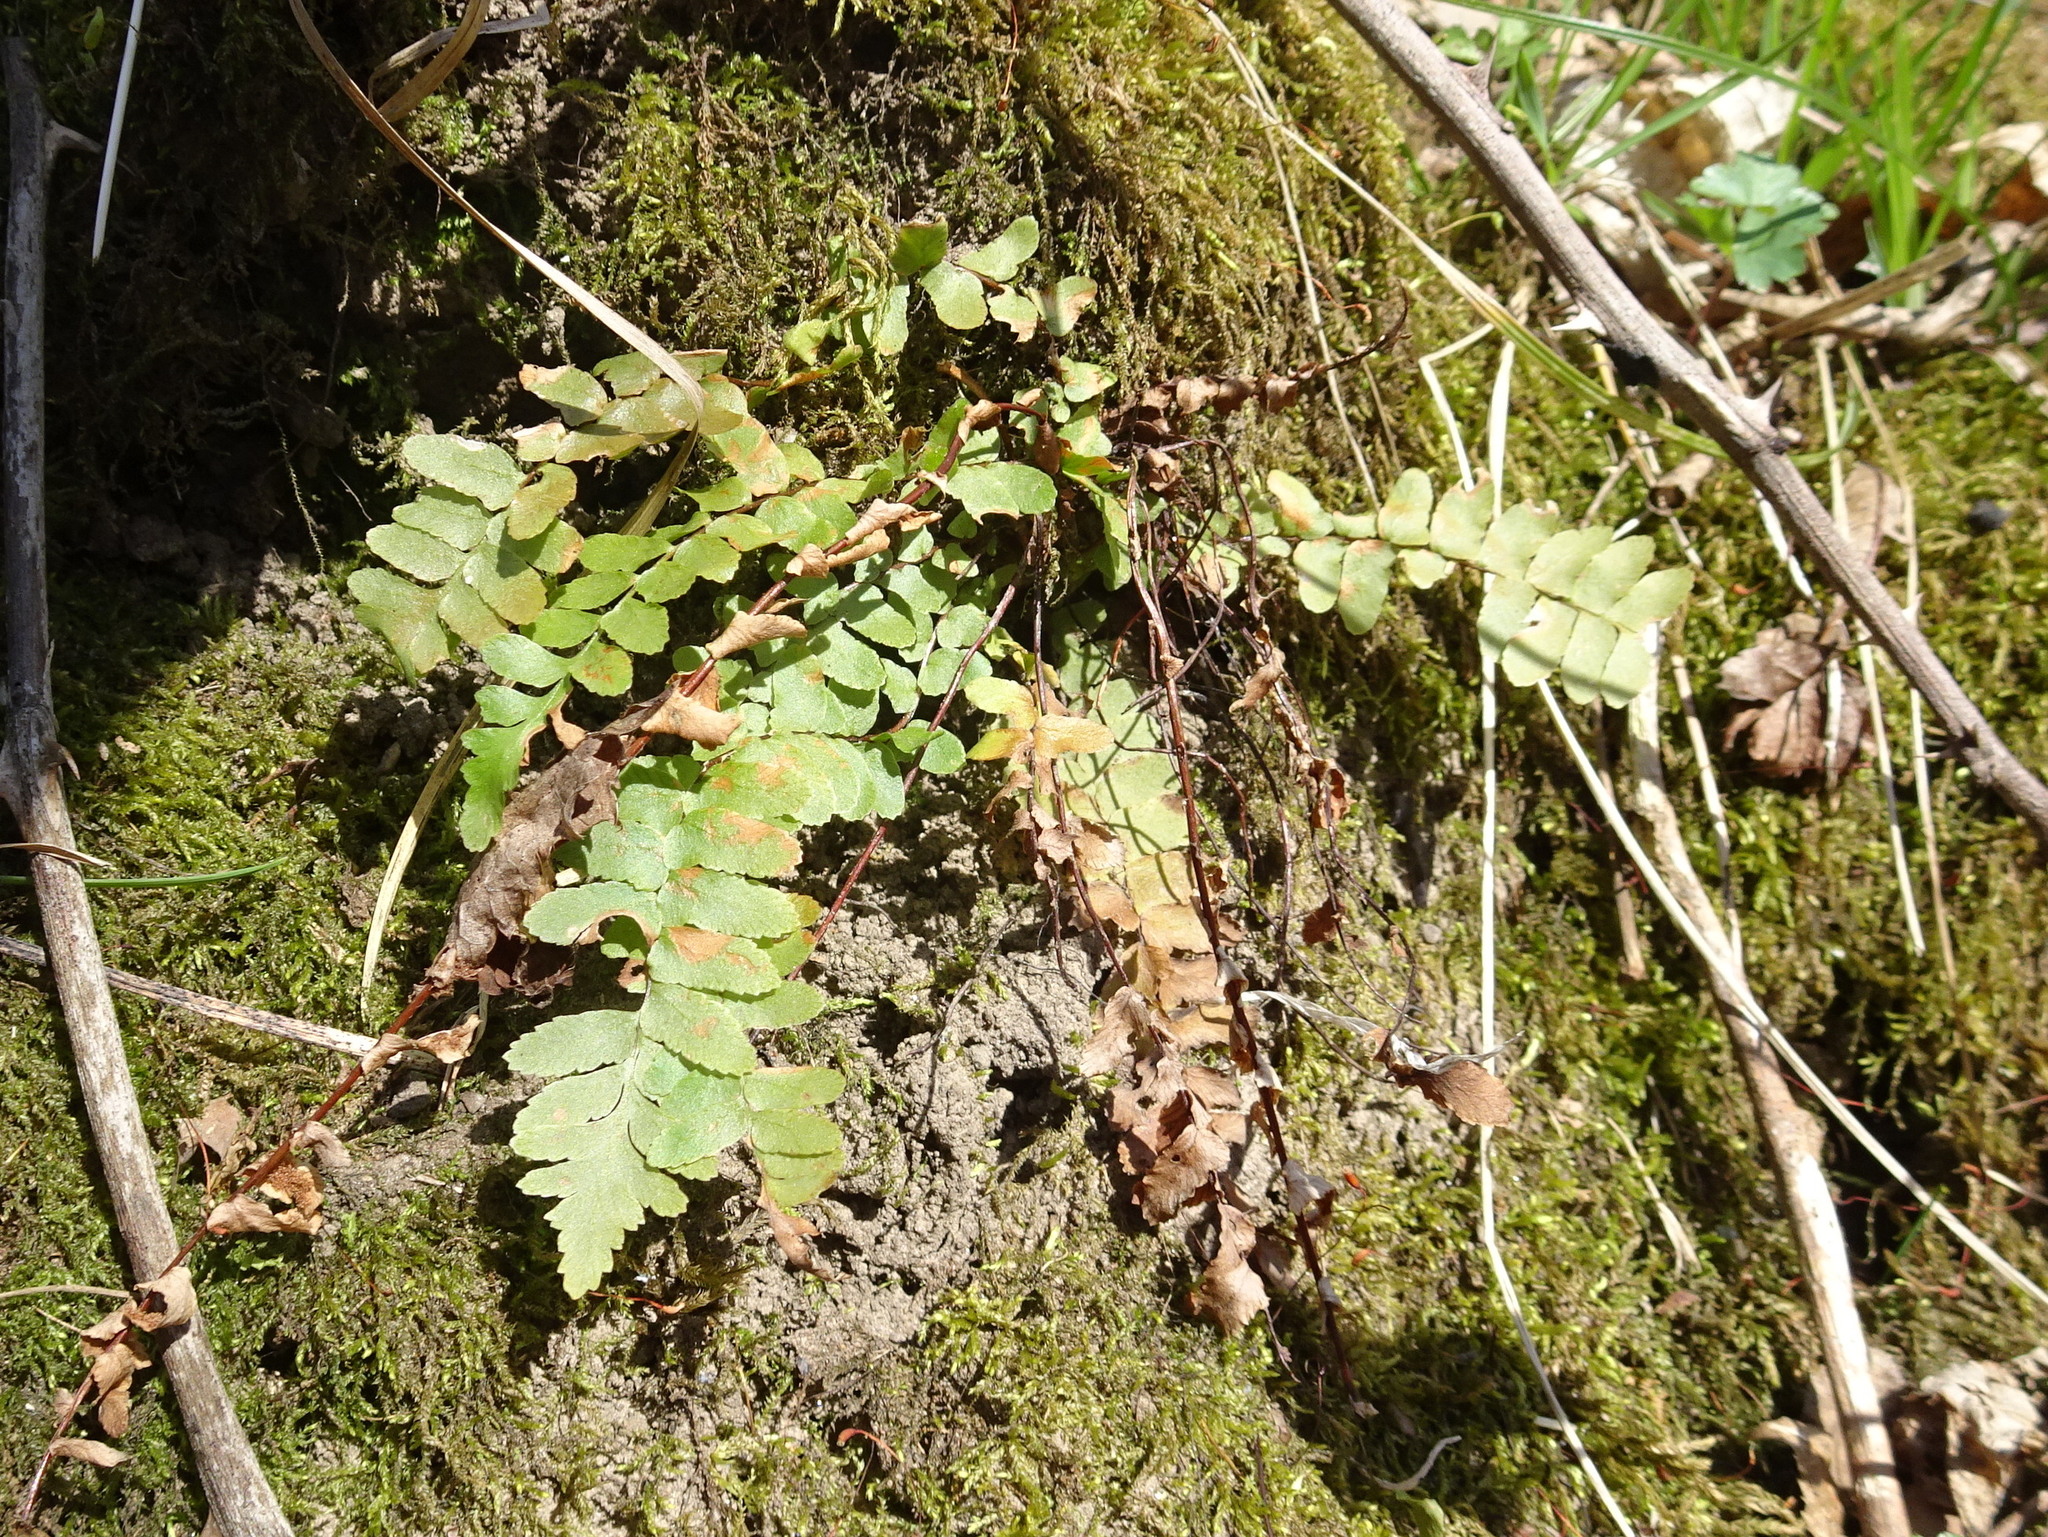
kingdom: Plantae
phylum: Tracheophyta
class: Polypodiopsida
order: Polypodiales
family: Aspleniaceae
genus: Asplenium
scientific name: Asplenium platyneuron
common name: Ebony spleenwort
